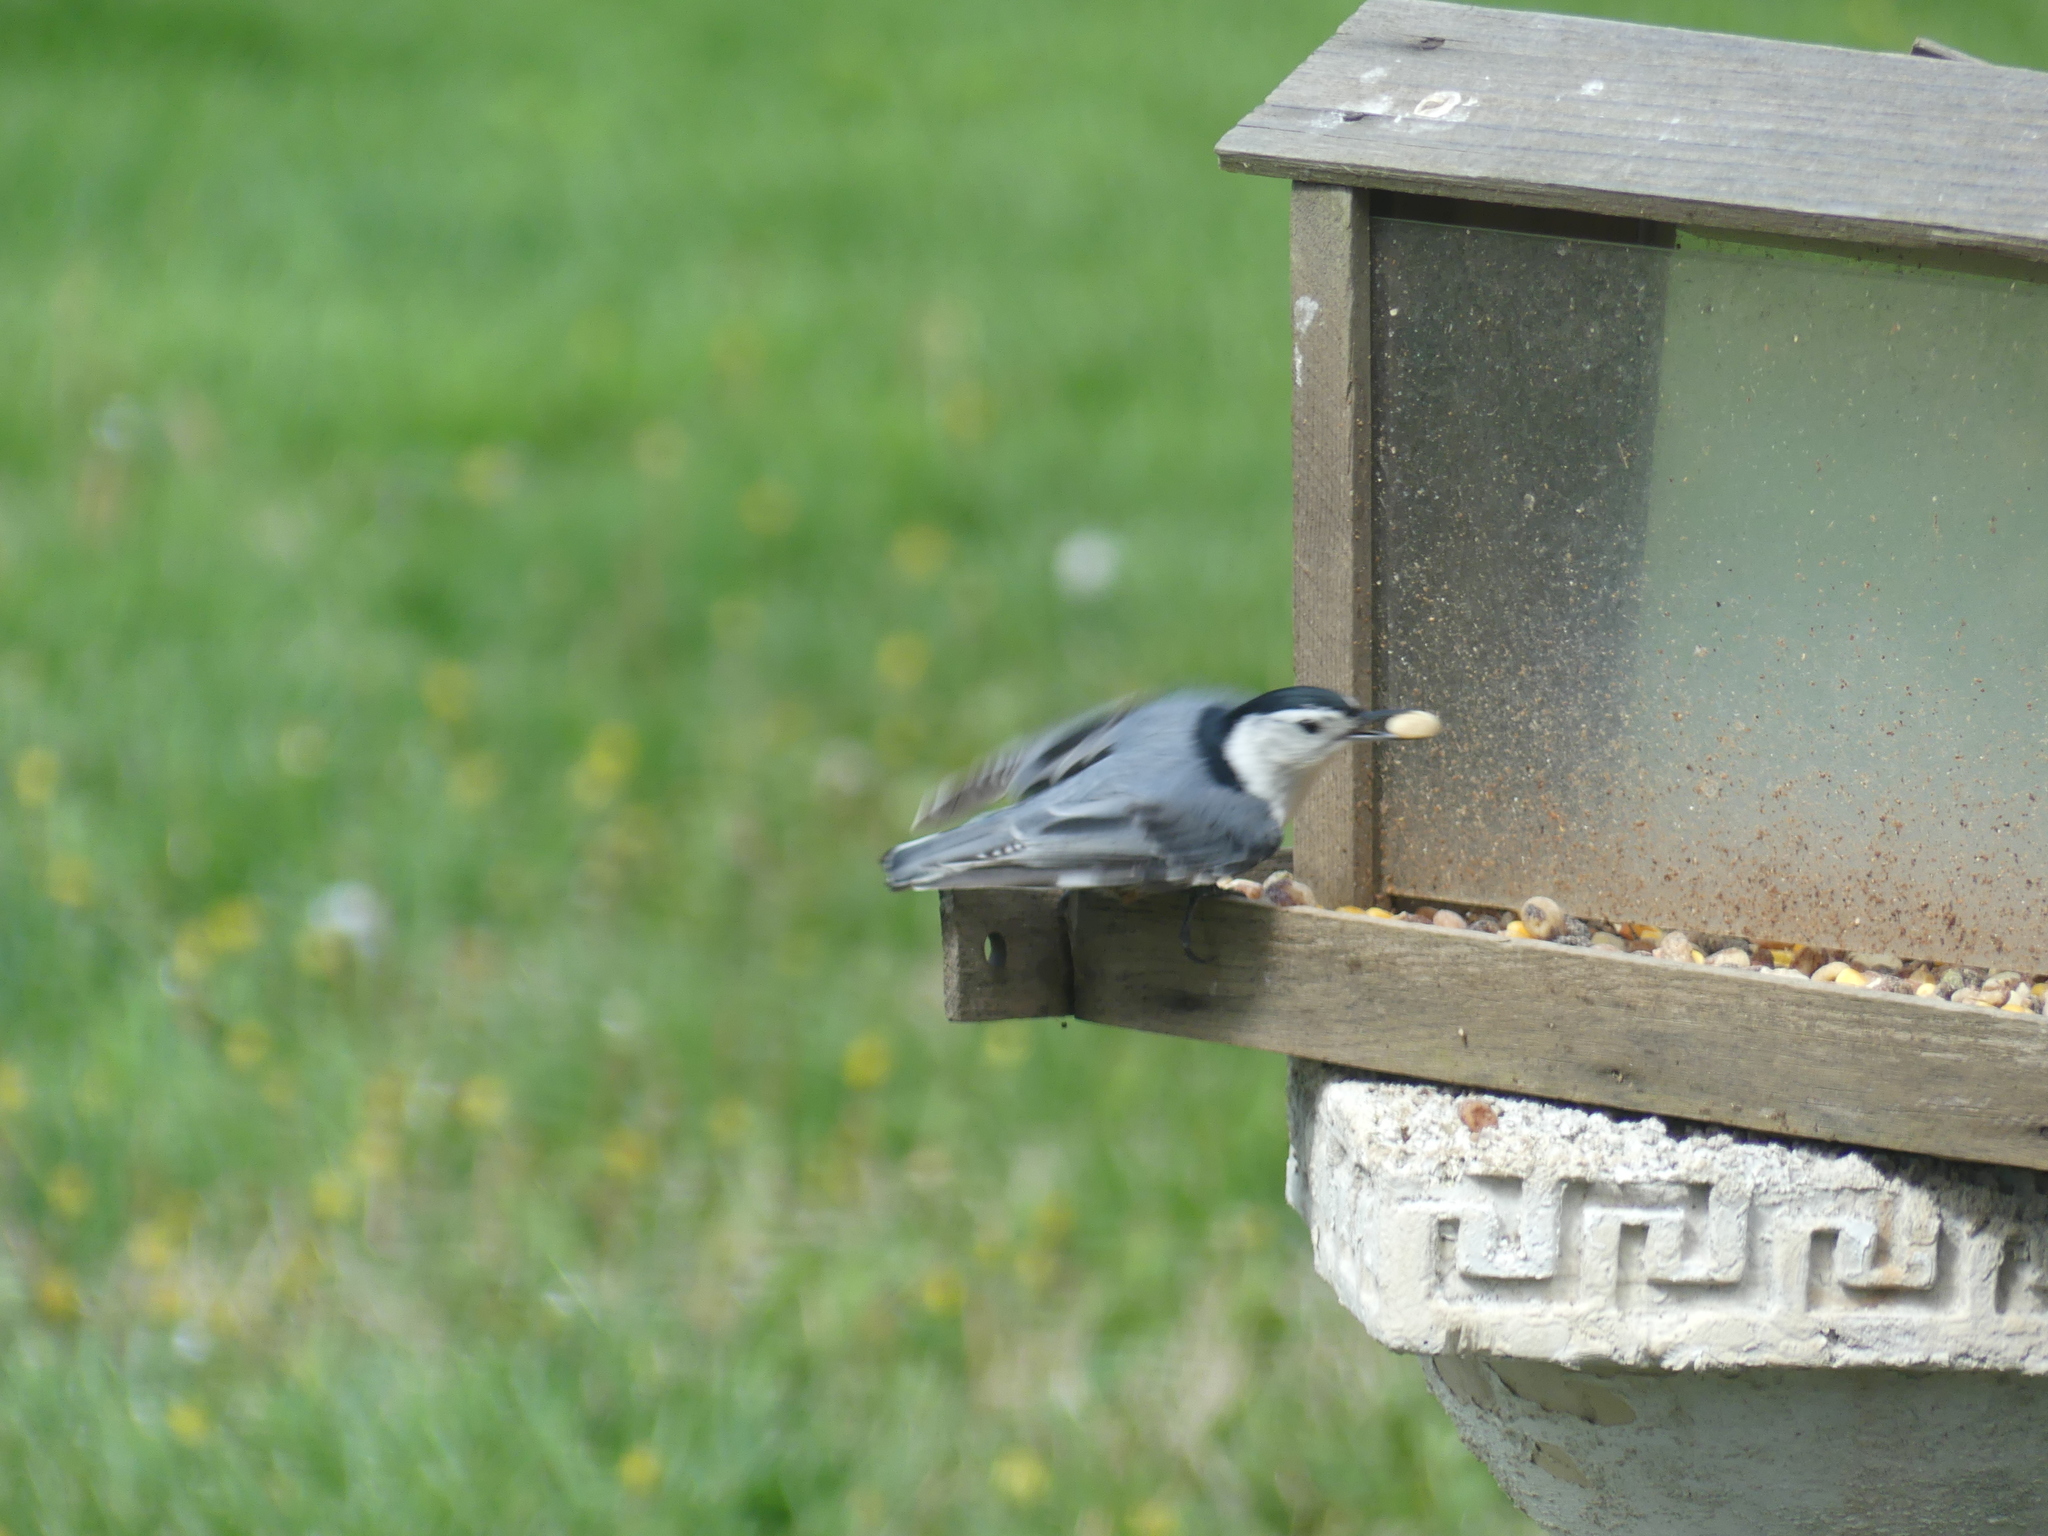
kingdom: Animalia
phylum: Chordata
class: Aves
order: Passeriformes
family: Sittidae
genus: Sitta
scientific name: Sitta carolinensis
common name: White-breasted nuthatch
